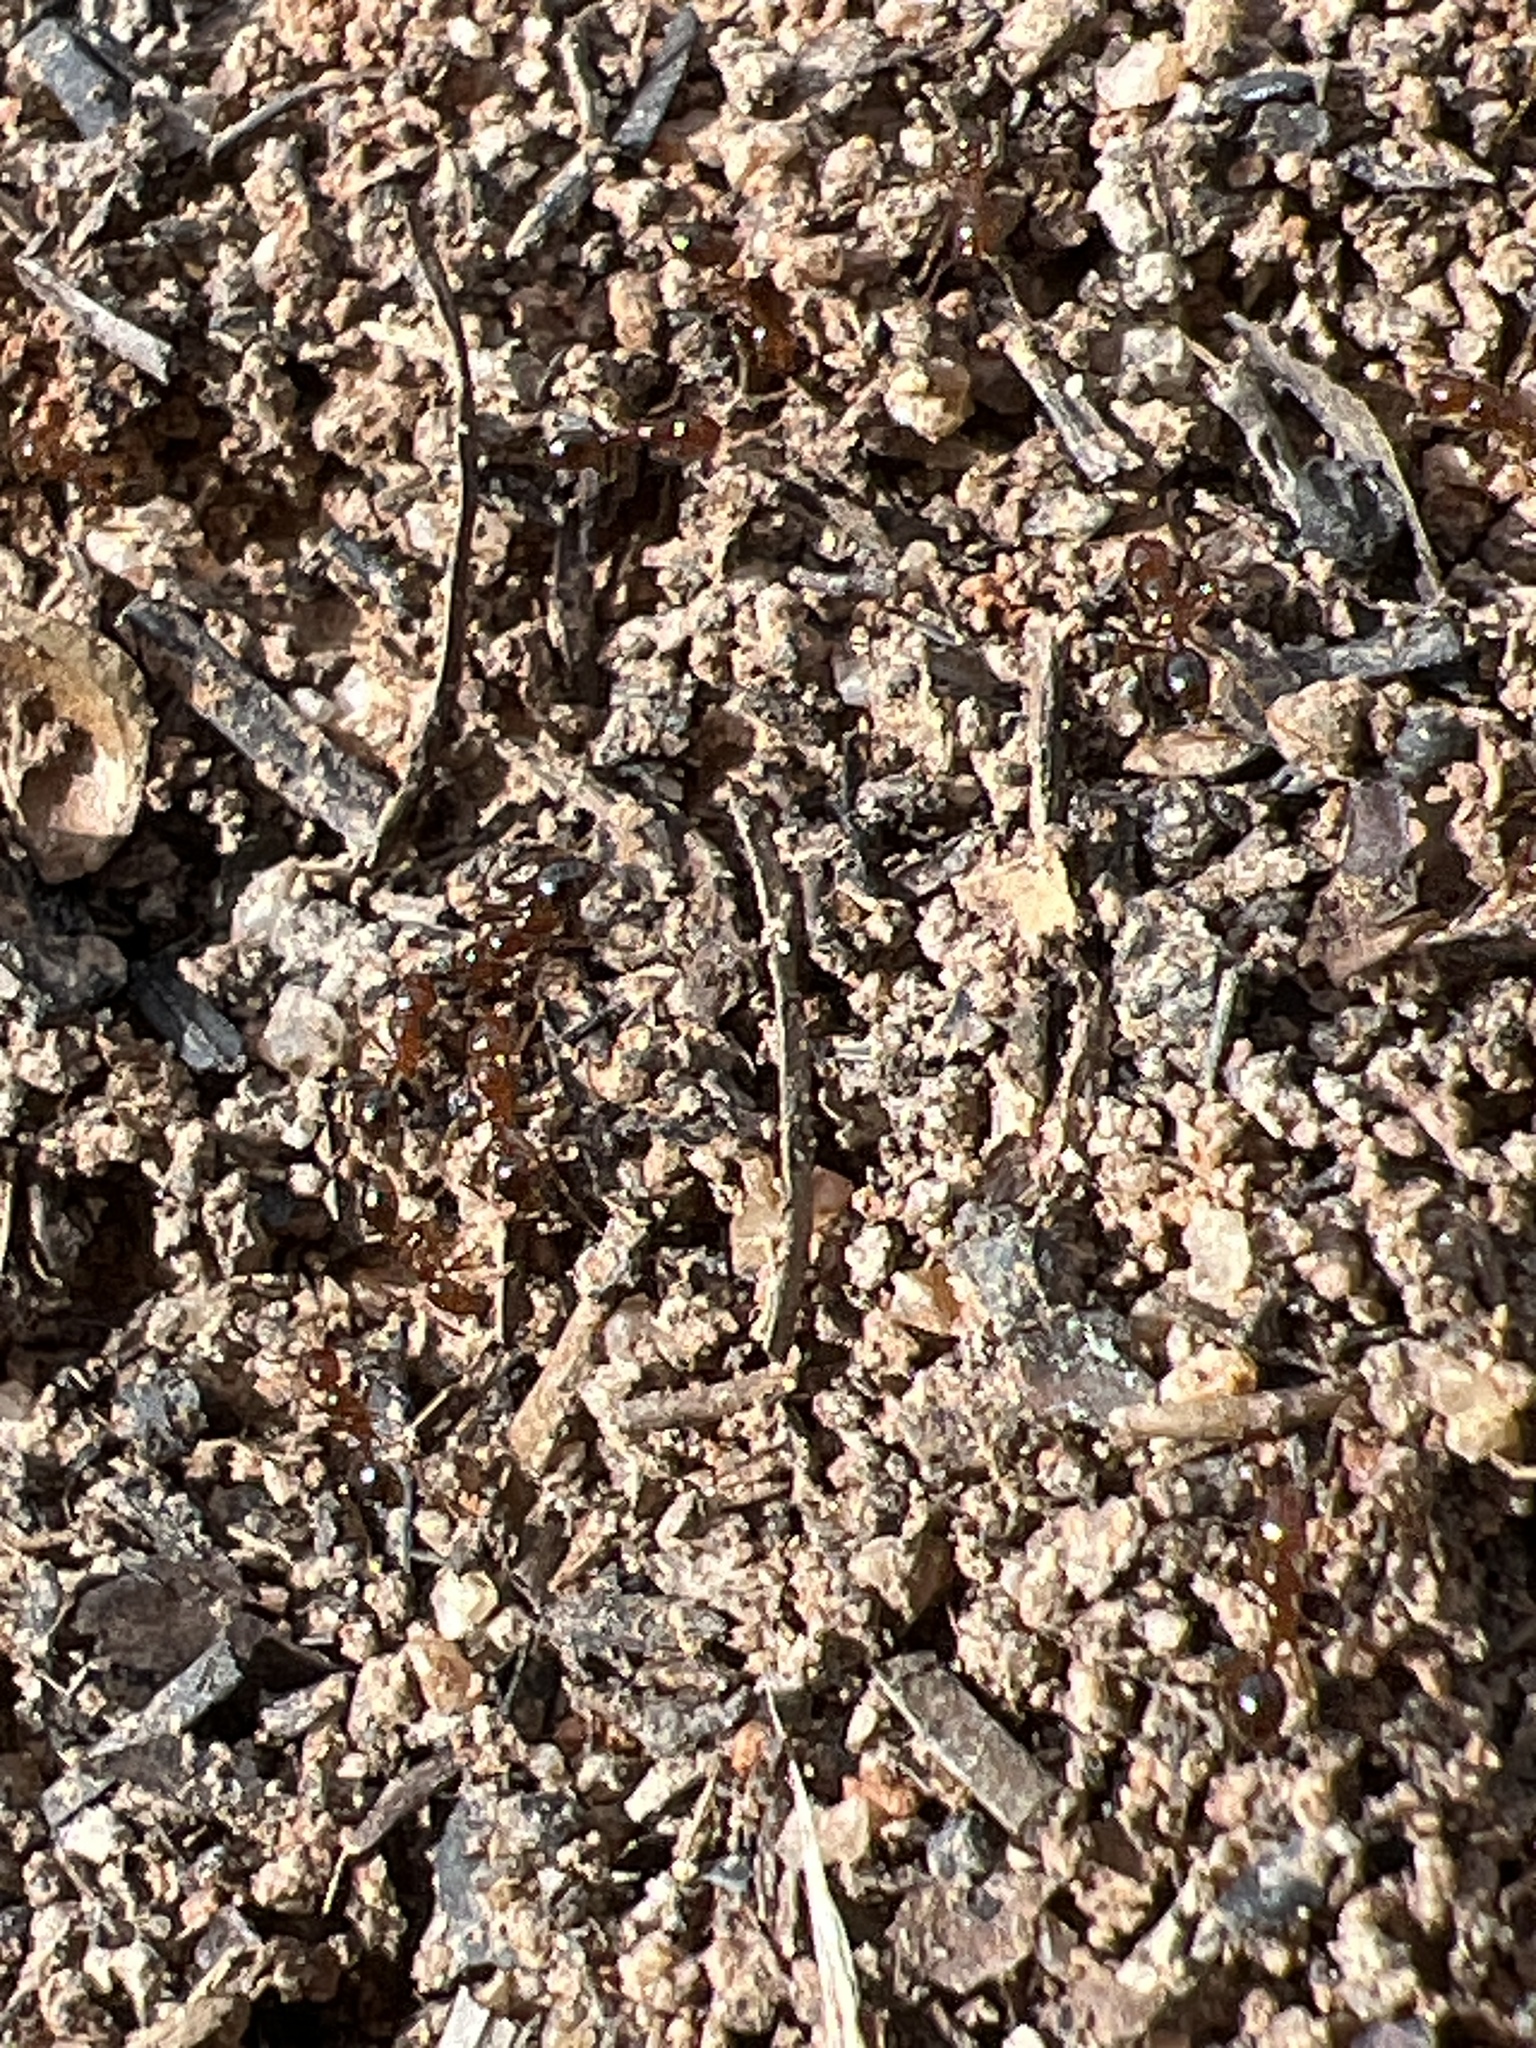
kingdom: Animalia
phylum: Arthropoda
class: Insecta
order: Hymenoptera
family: Formicidae
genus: Solenopsis
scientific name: Solenopsis invicta
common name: Red imported fire ant
